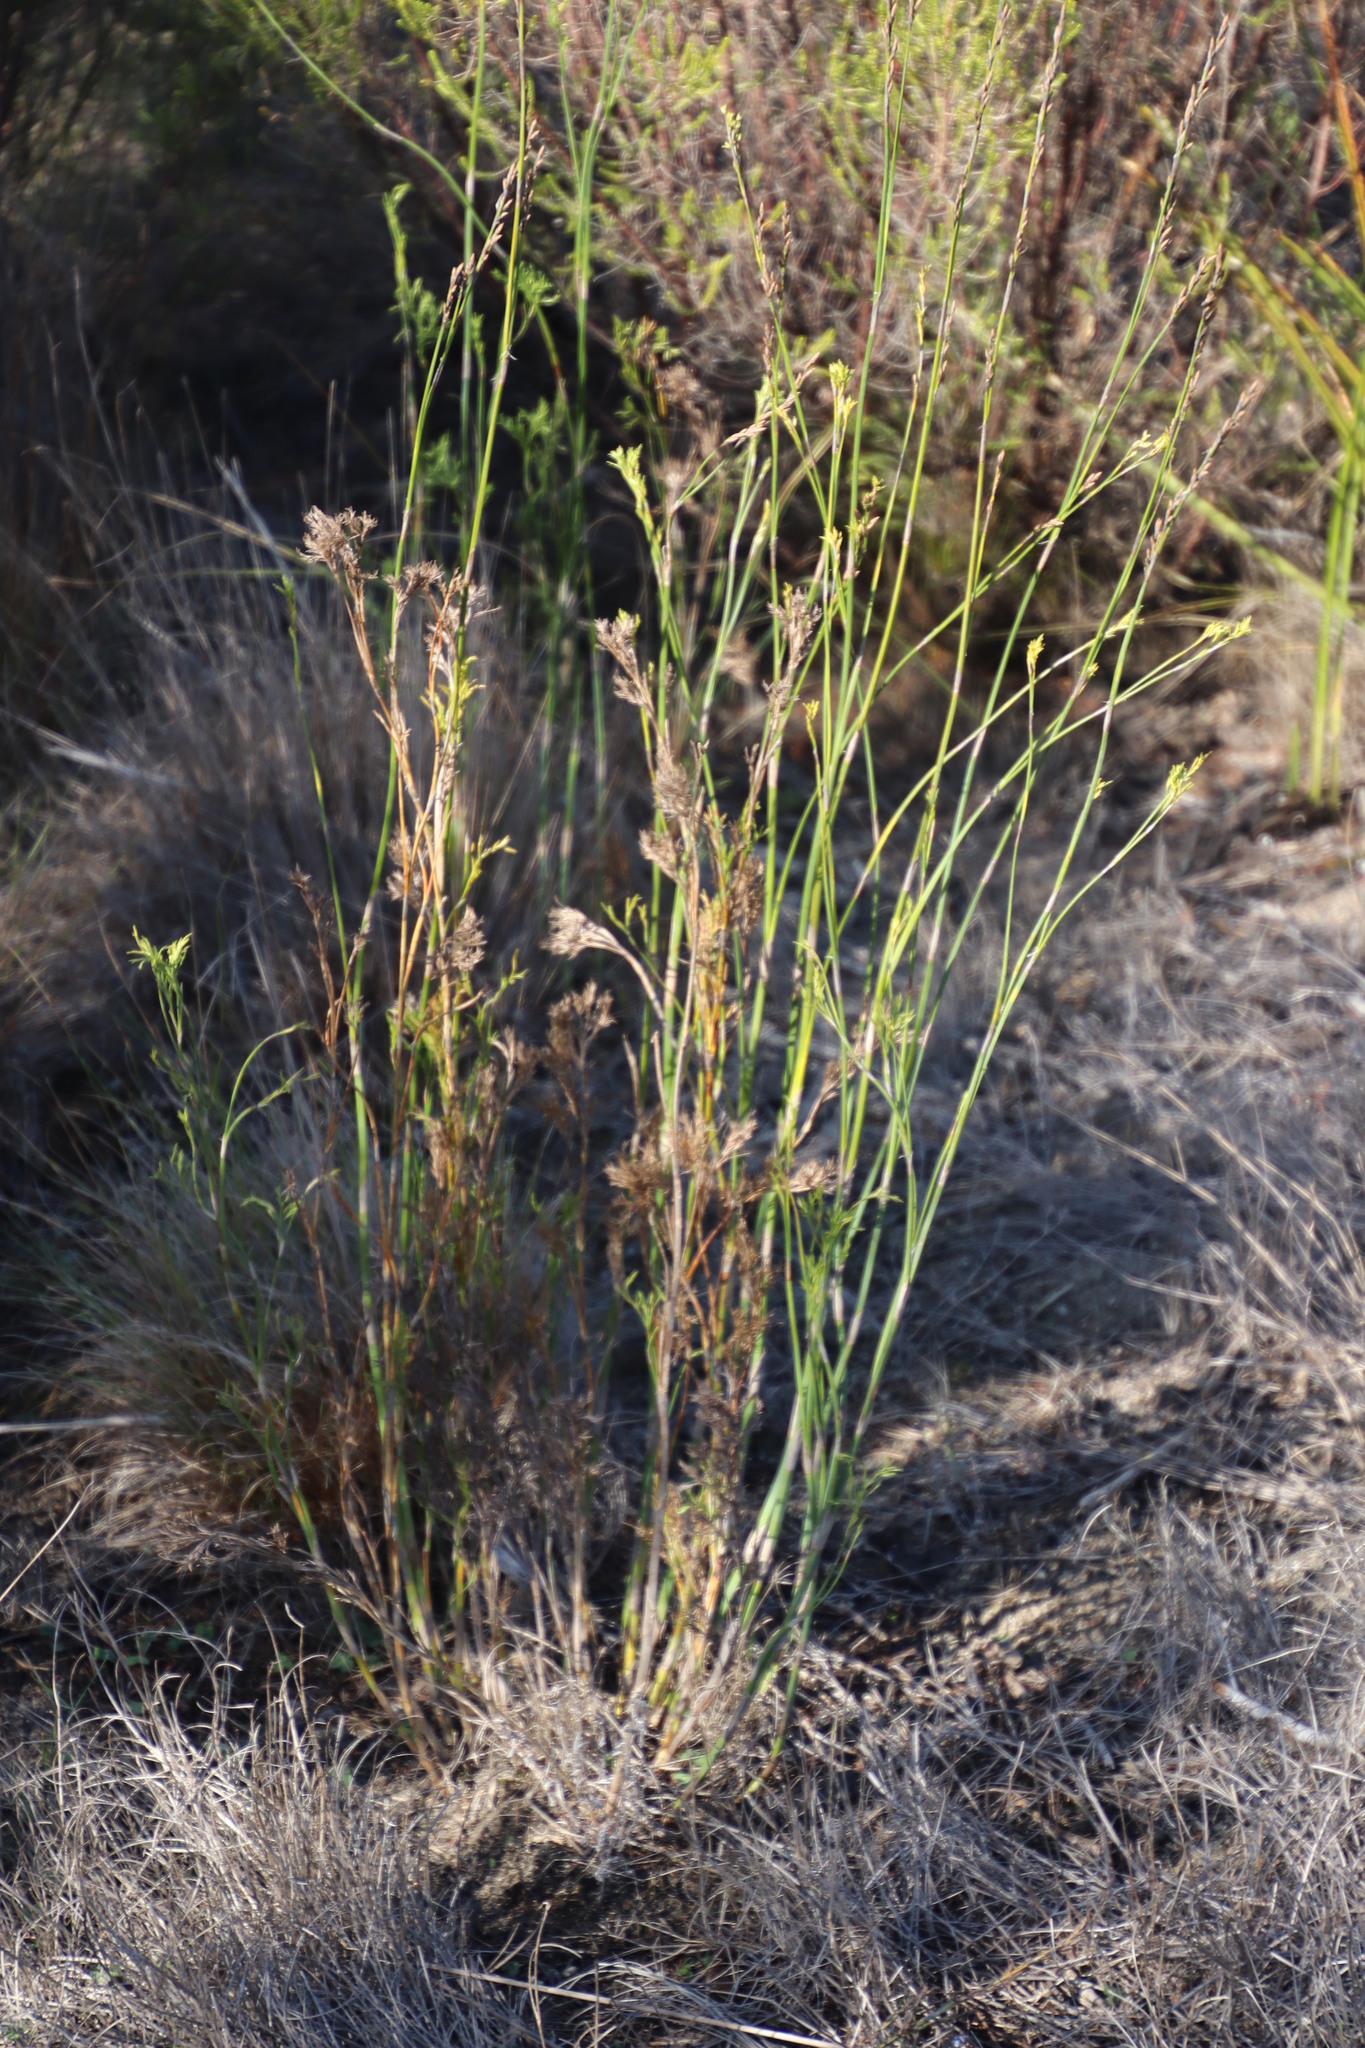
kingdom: Plantae
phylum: Tracheophyta
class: Liliopsida
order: Poales
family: Restionaceae
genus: Restio
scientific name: Restio tetragonus
